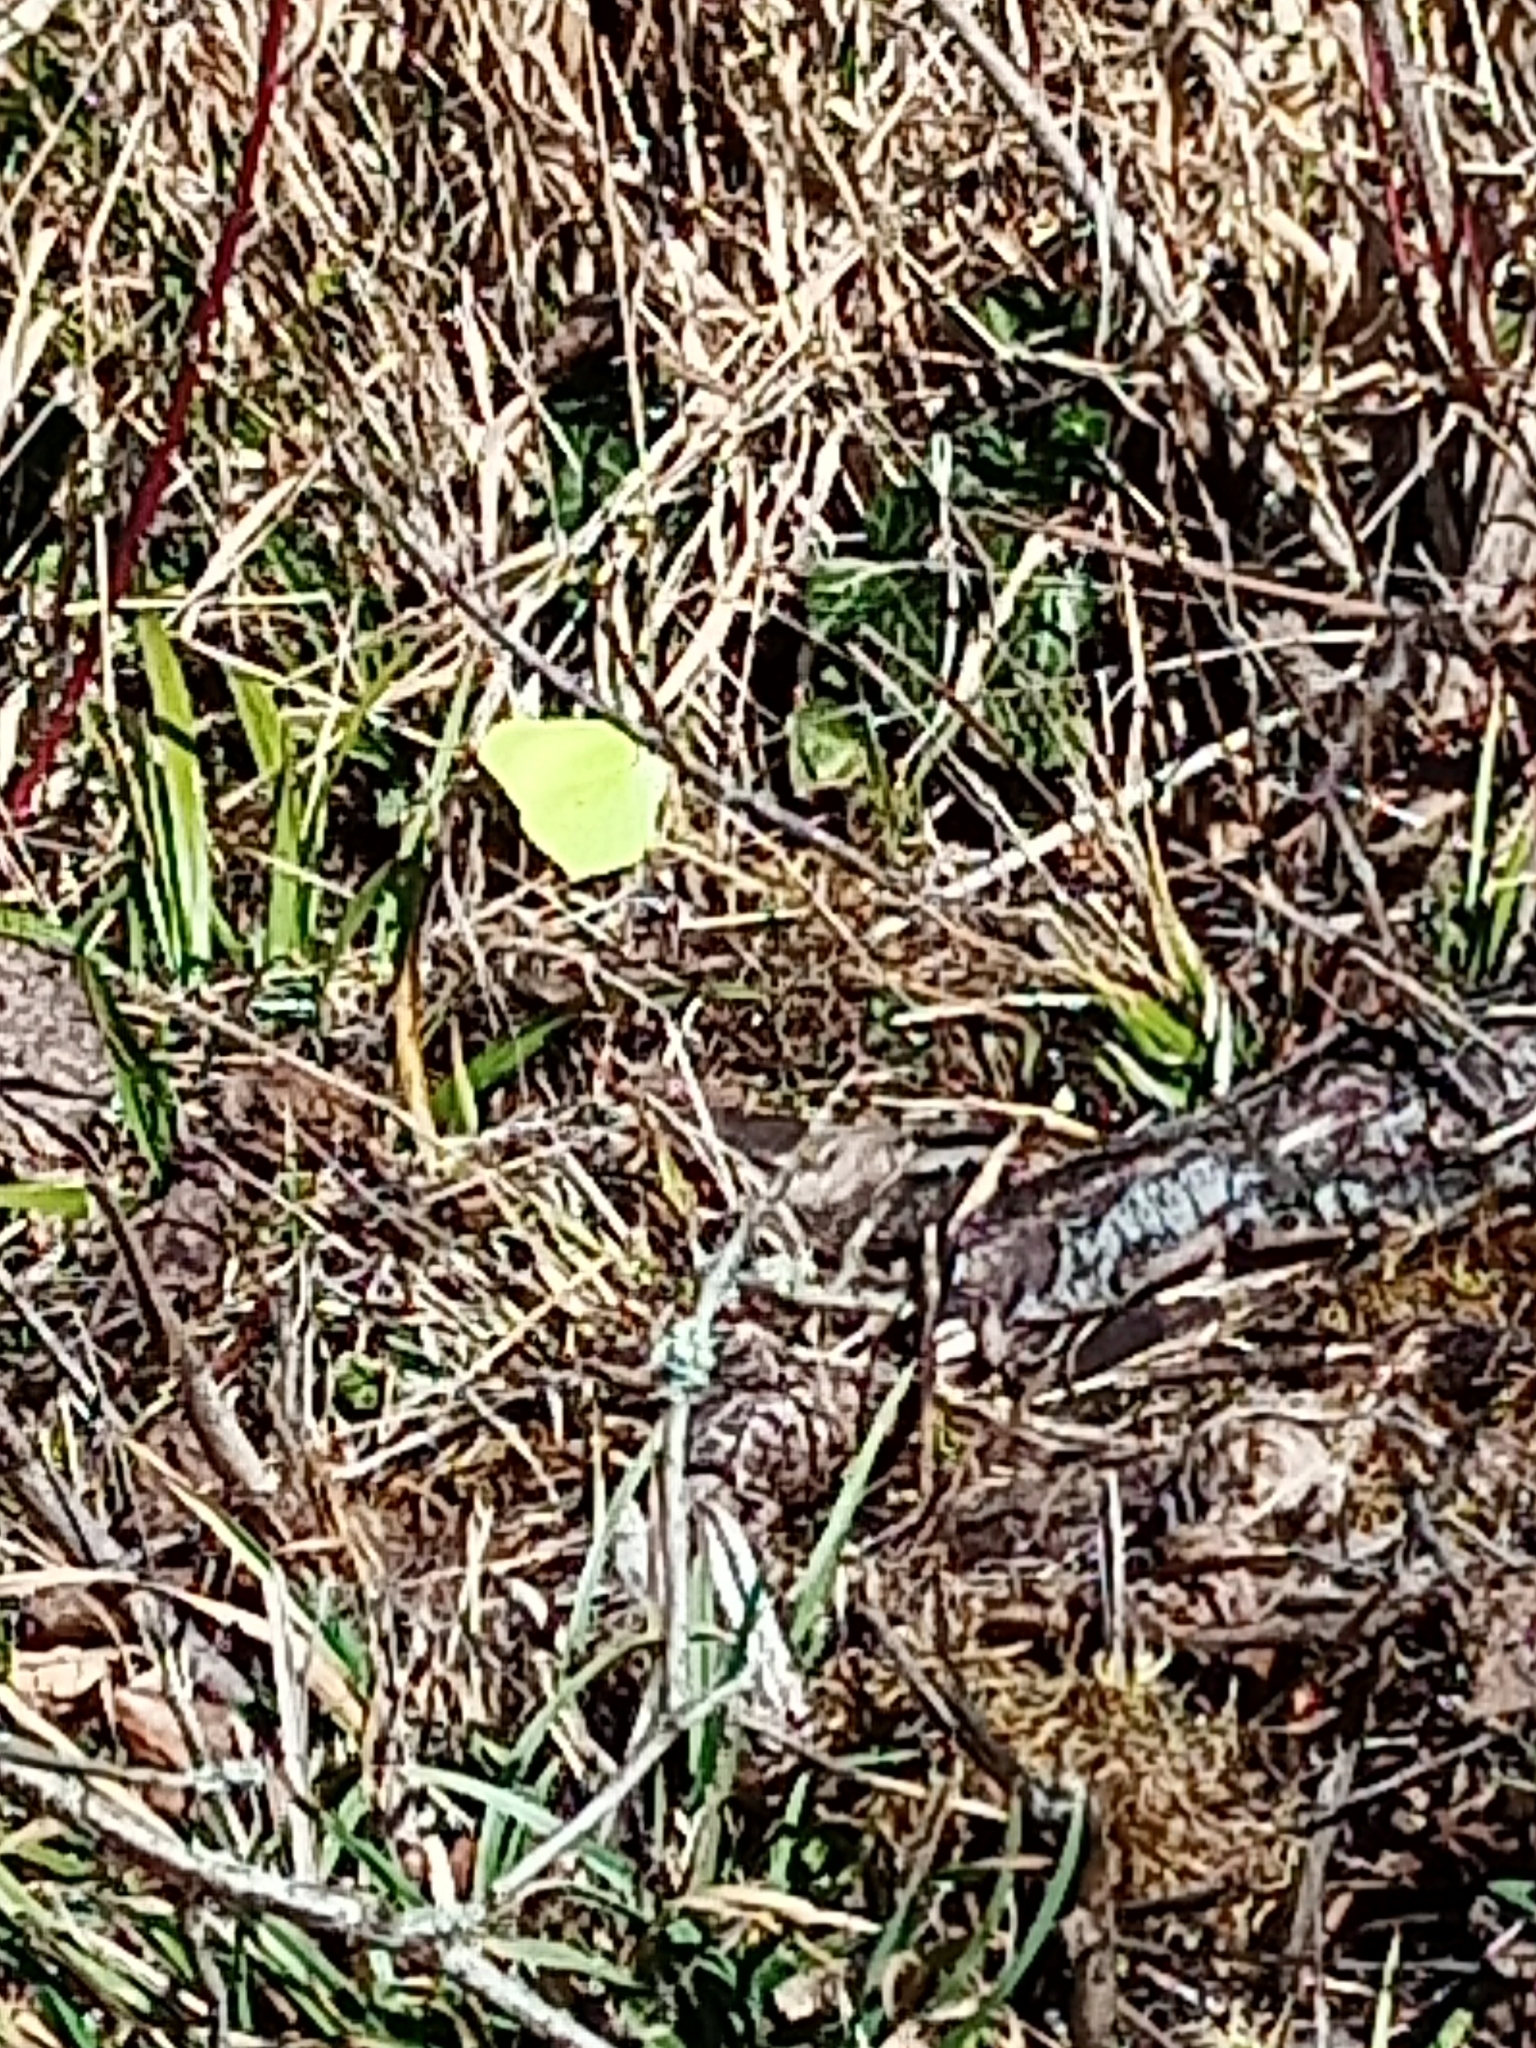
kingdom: Animalia
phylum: Arthropoda
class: Insecta
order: Lepidoptera
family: Pieridae
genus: Gonepteryx
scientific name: Gonepteryx rhamni
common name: Brimstone
